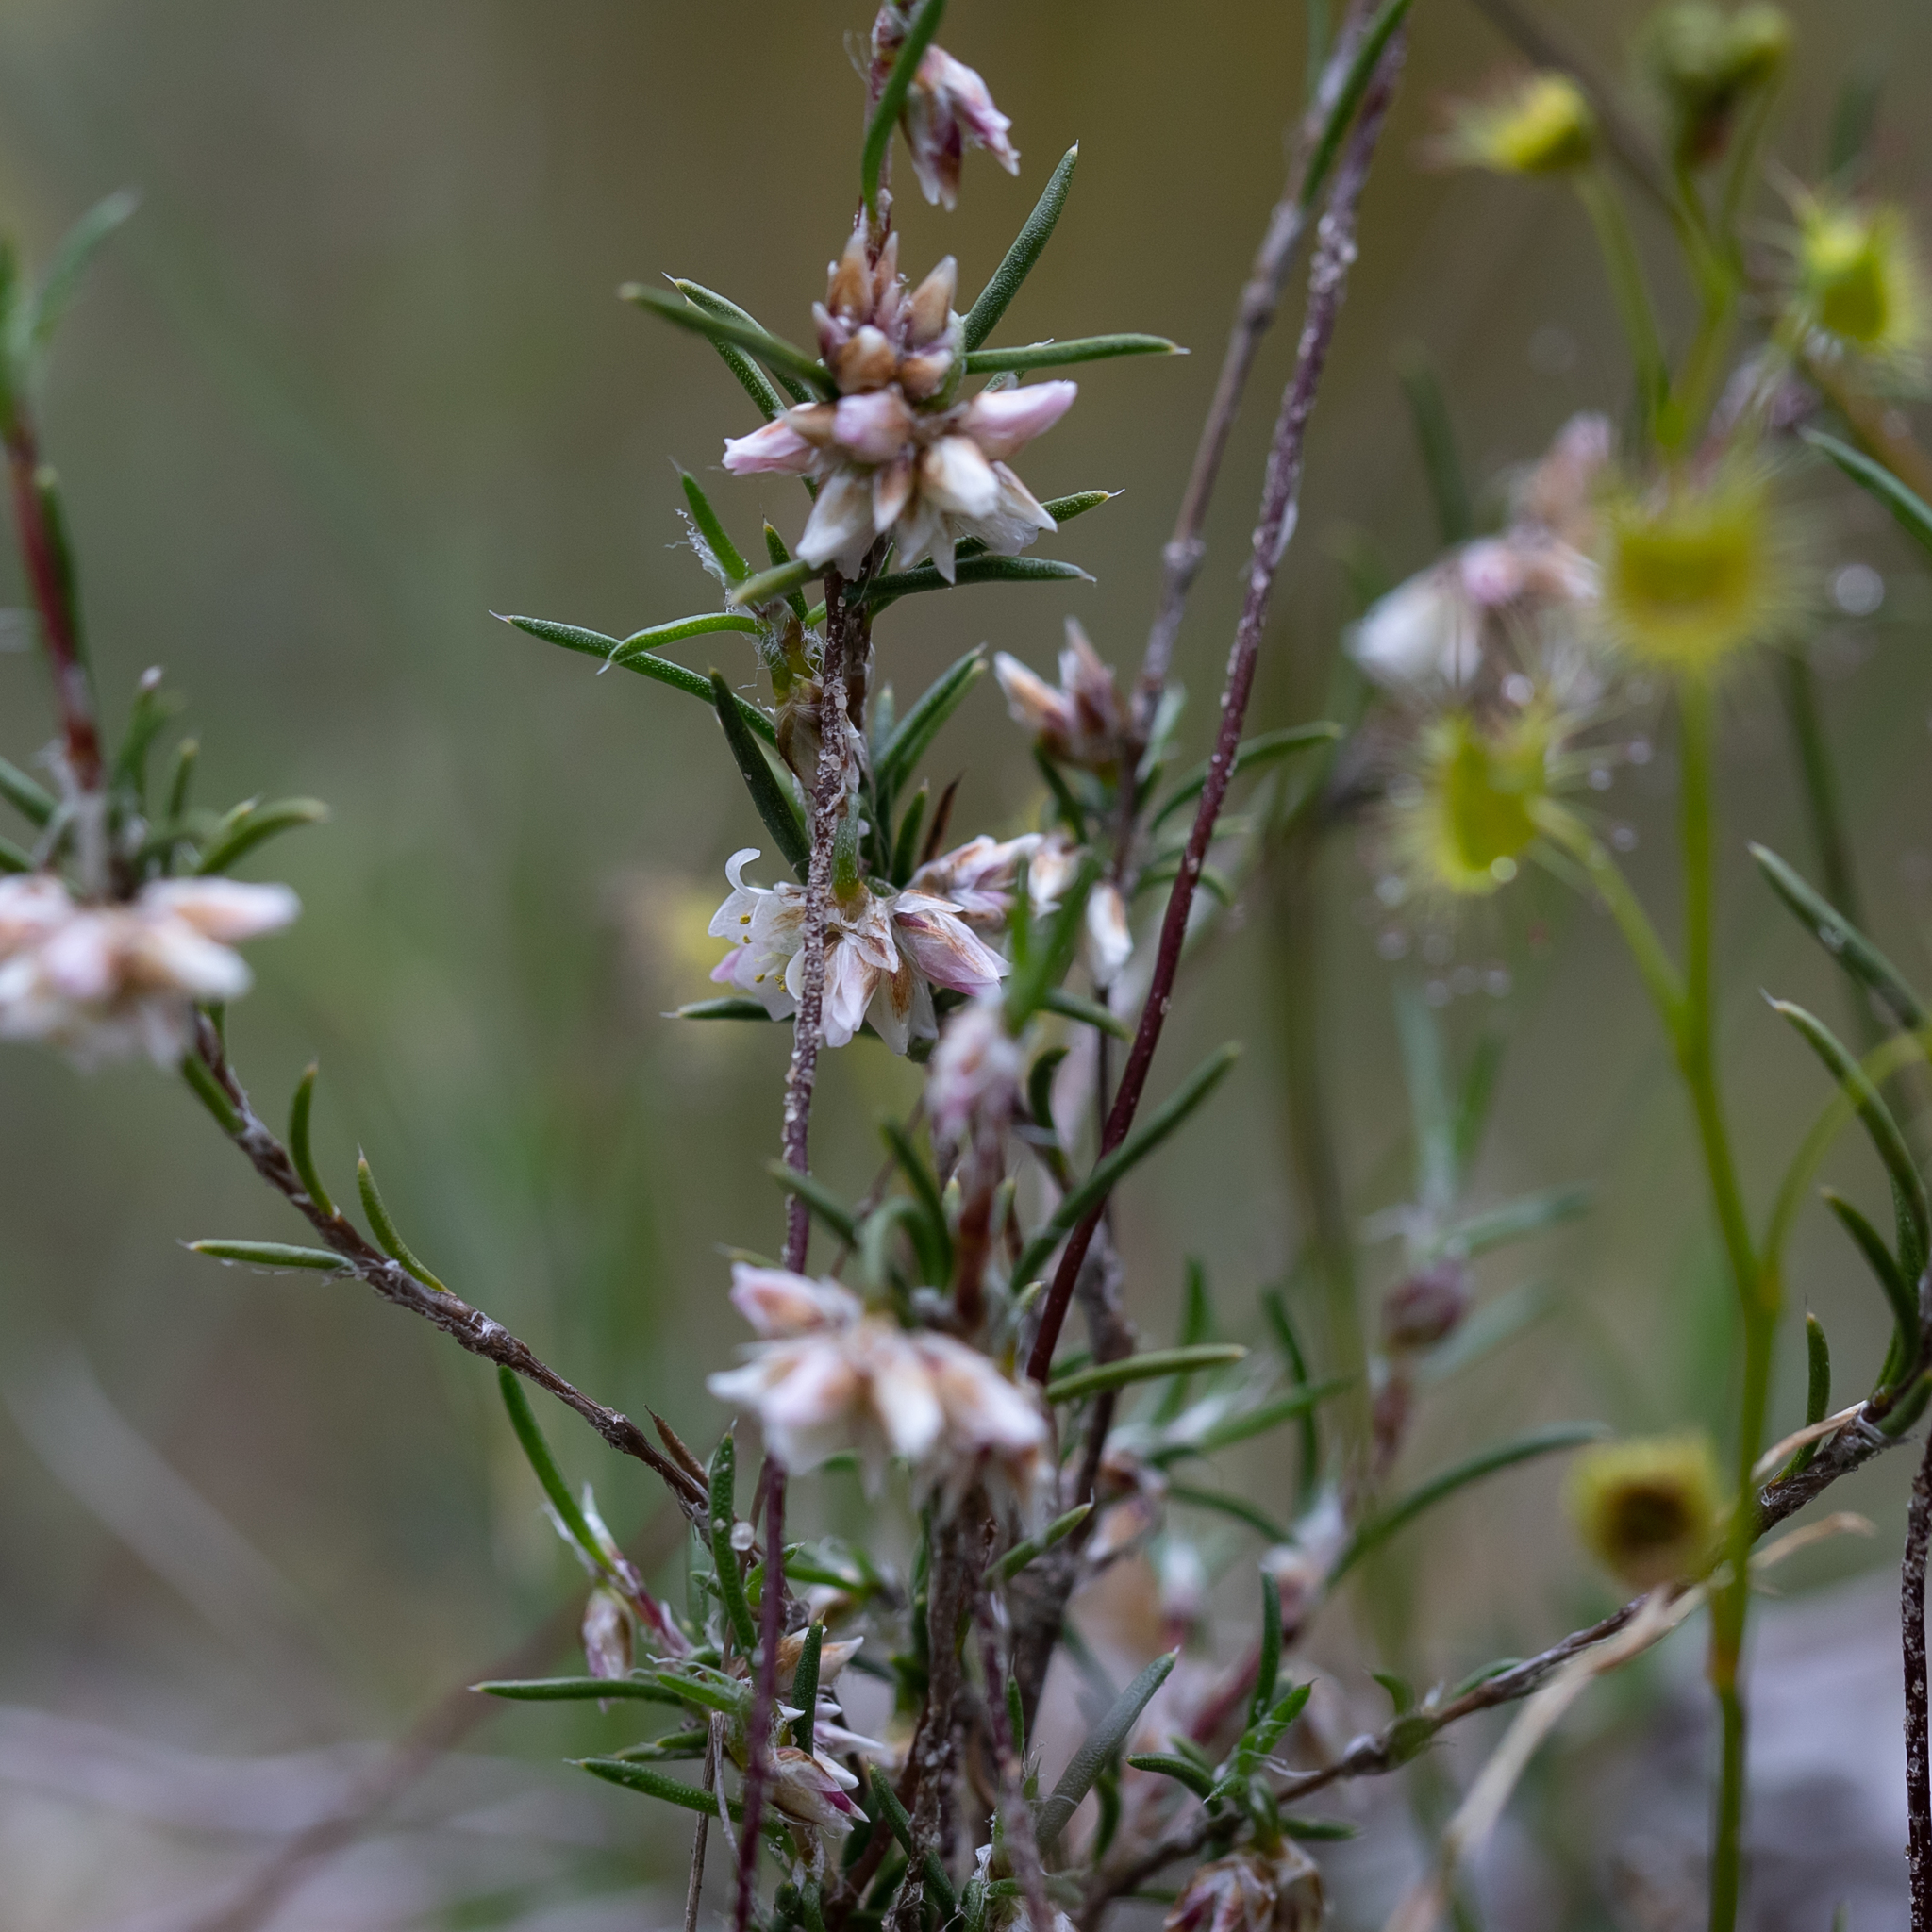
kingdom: Plantae
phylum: Tracheophyta
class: Liliopsida
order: Asparagales
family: Asparagaceae
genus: Laxmannia
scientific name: Laxmannia orientalis
